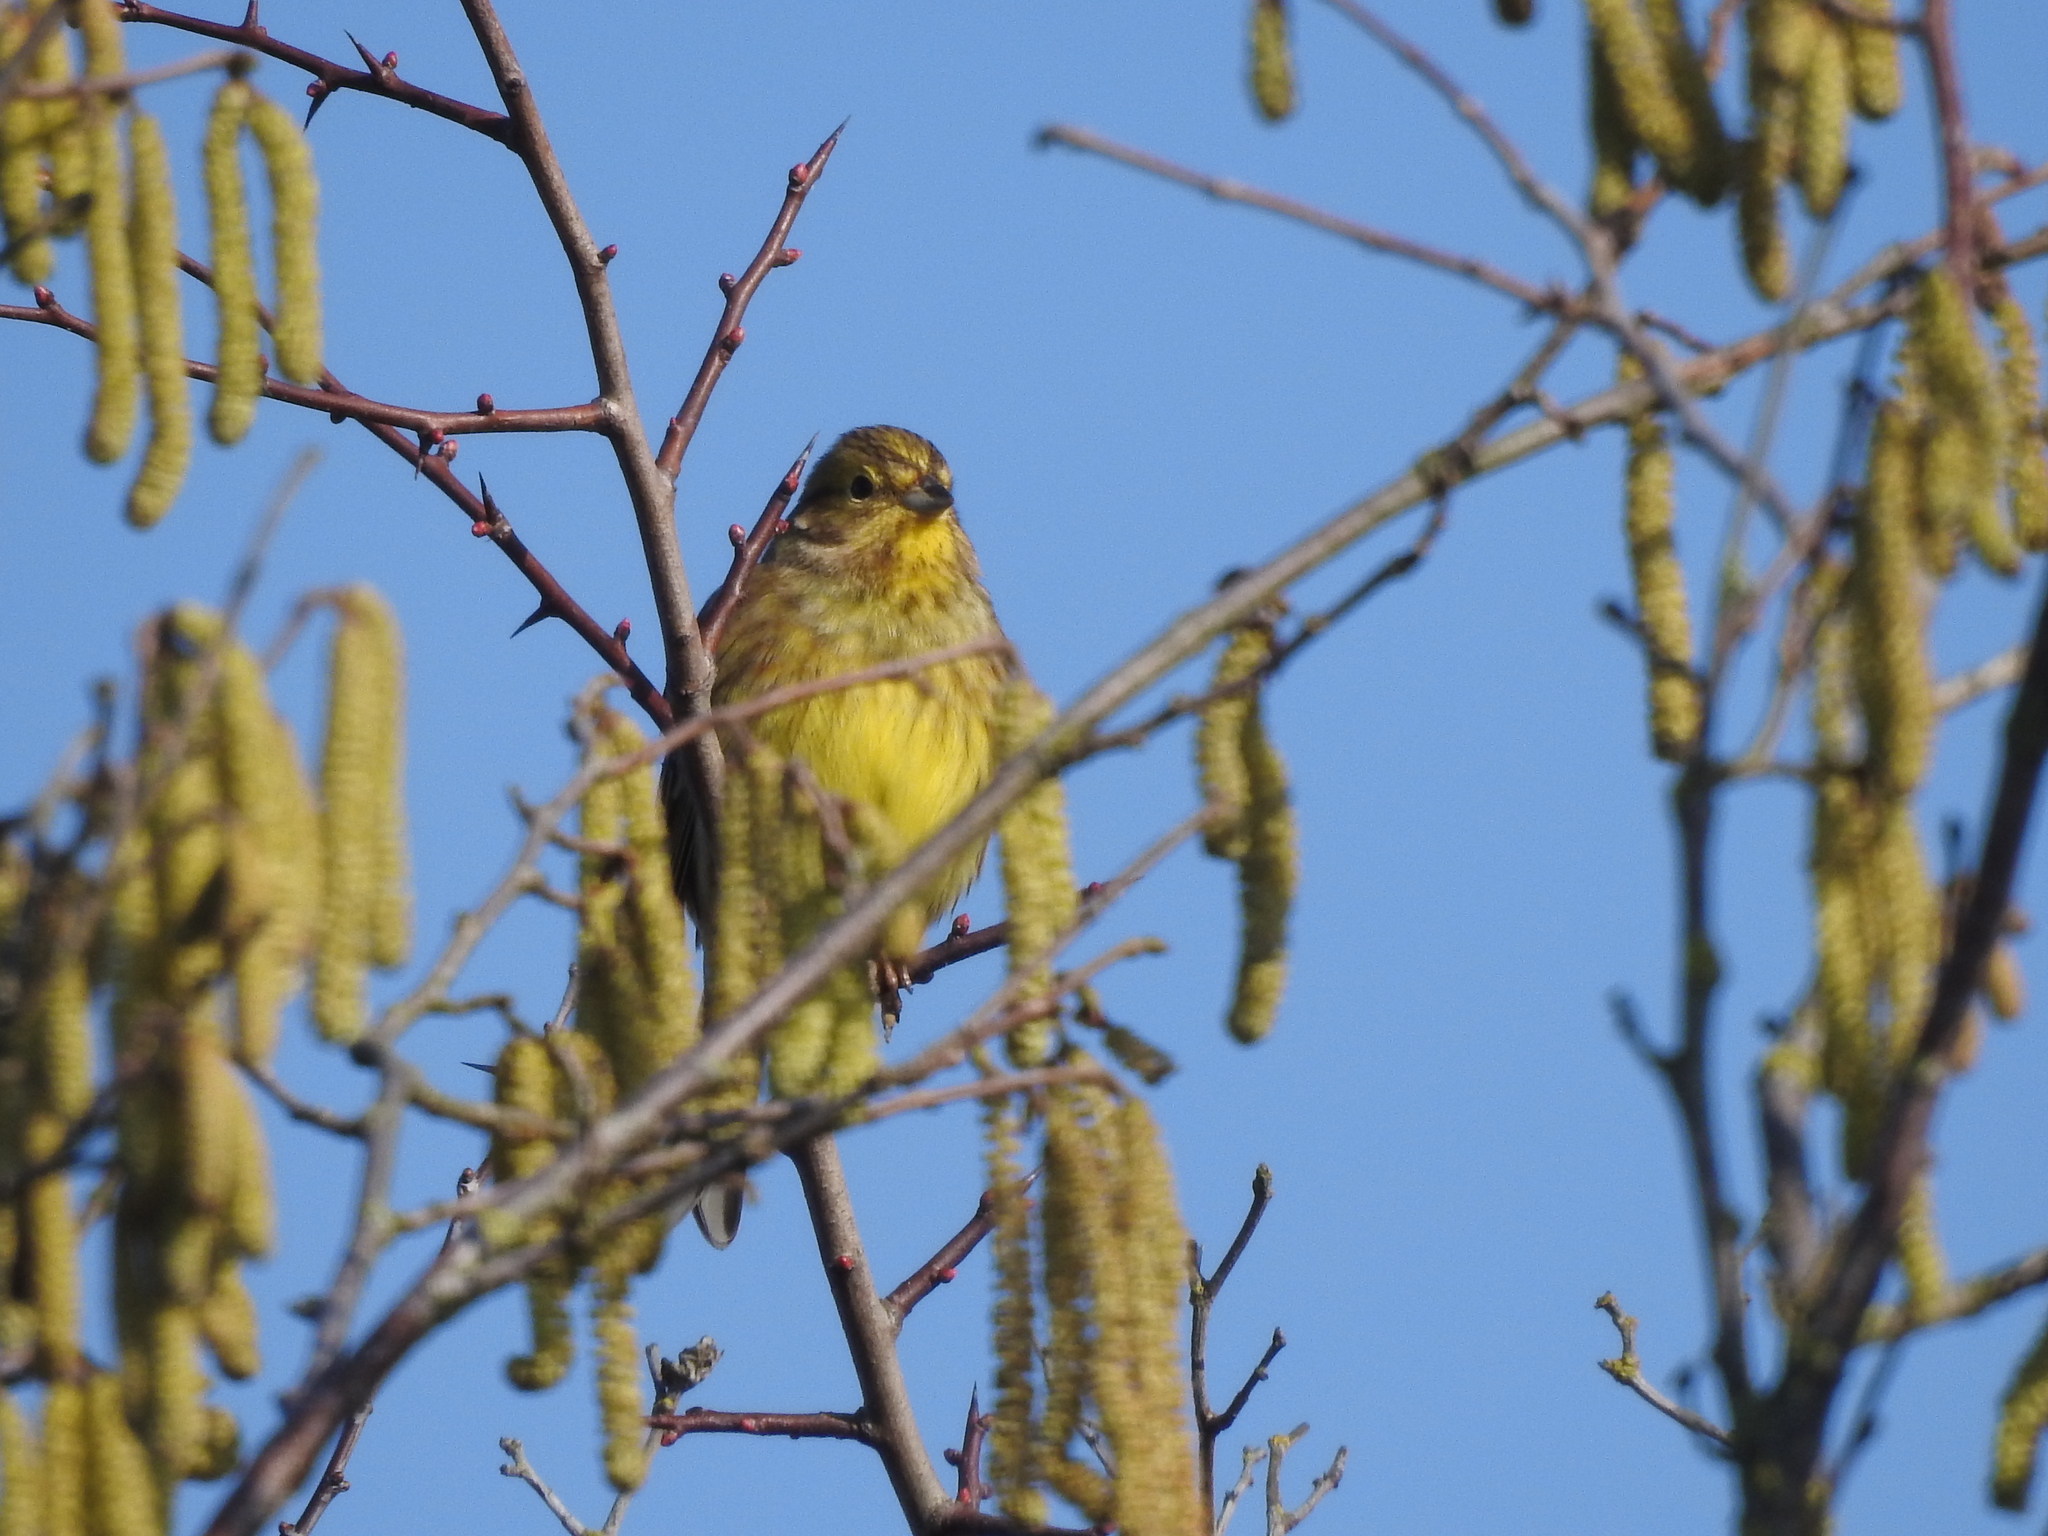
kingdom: Animalia
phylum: Chordata
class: Aves
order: Passeriformes
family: Emberizidae
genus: Emberiza
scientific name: Emberiza citrinella
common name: Yellowhammer
